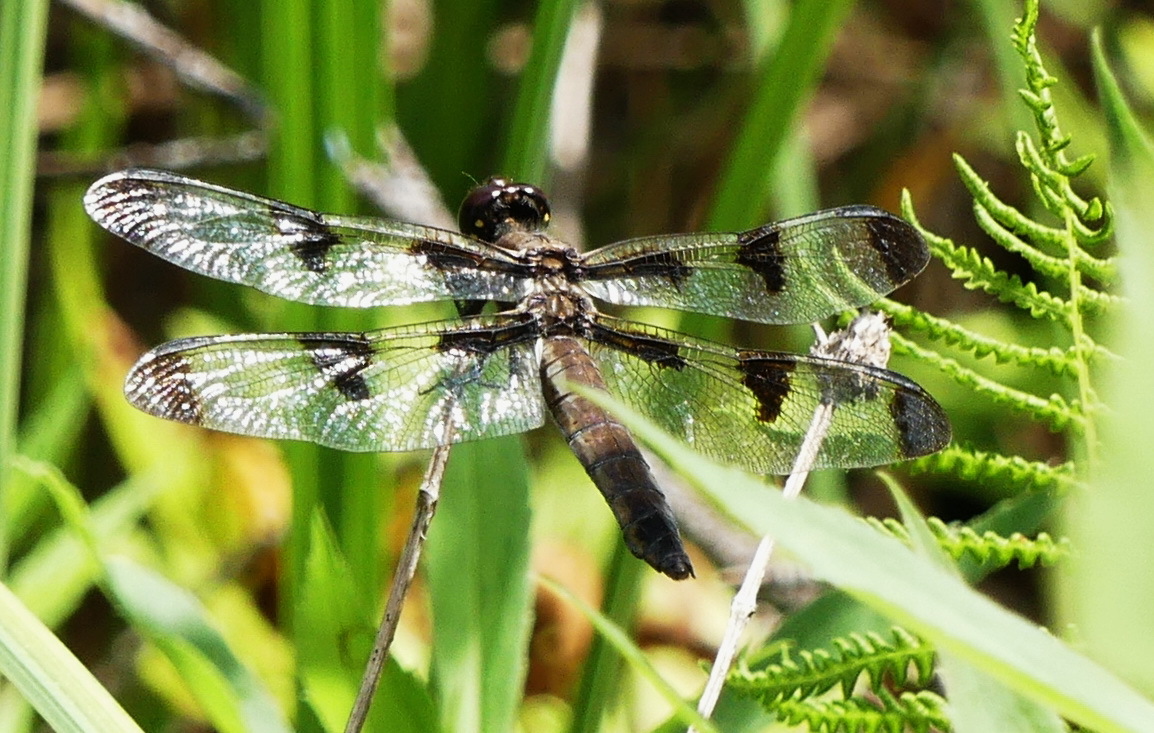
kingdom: Animalia
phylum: Arthropoda
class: Insecta
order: Odonata
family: Libellulidae
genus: Libellula
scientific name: Libellula pulchella
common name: Twelve-spotted skimmer
